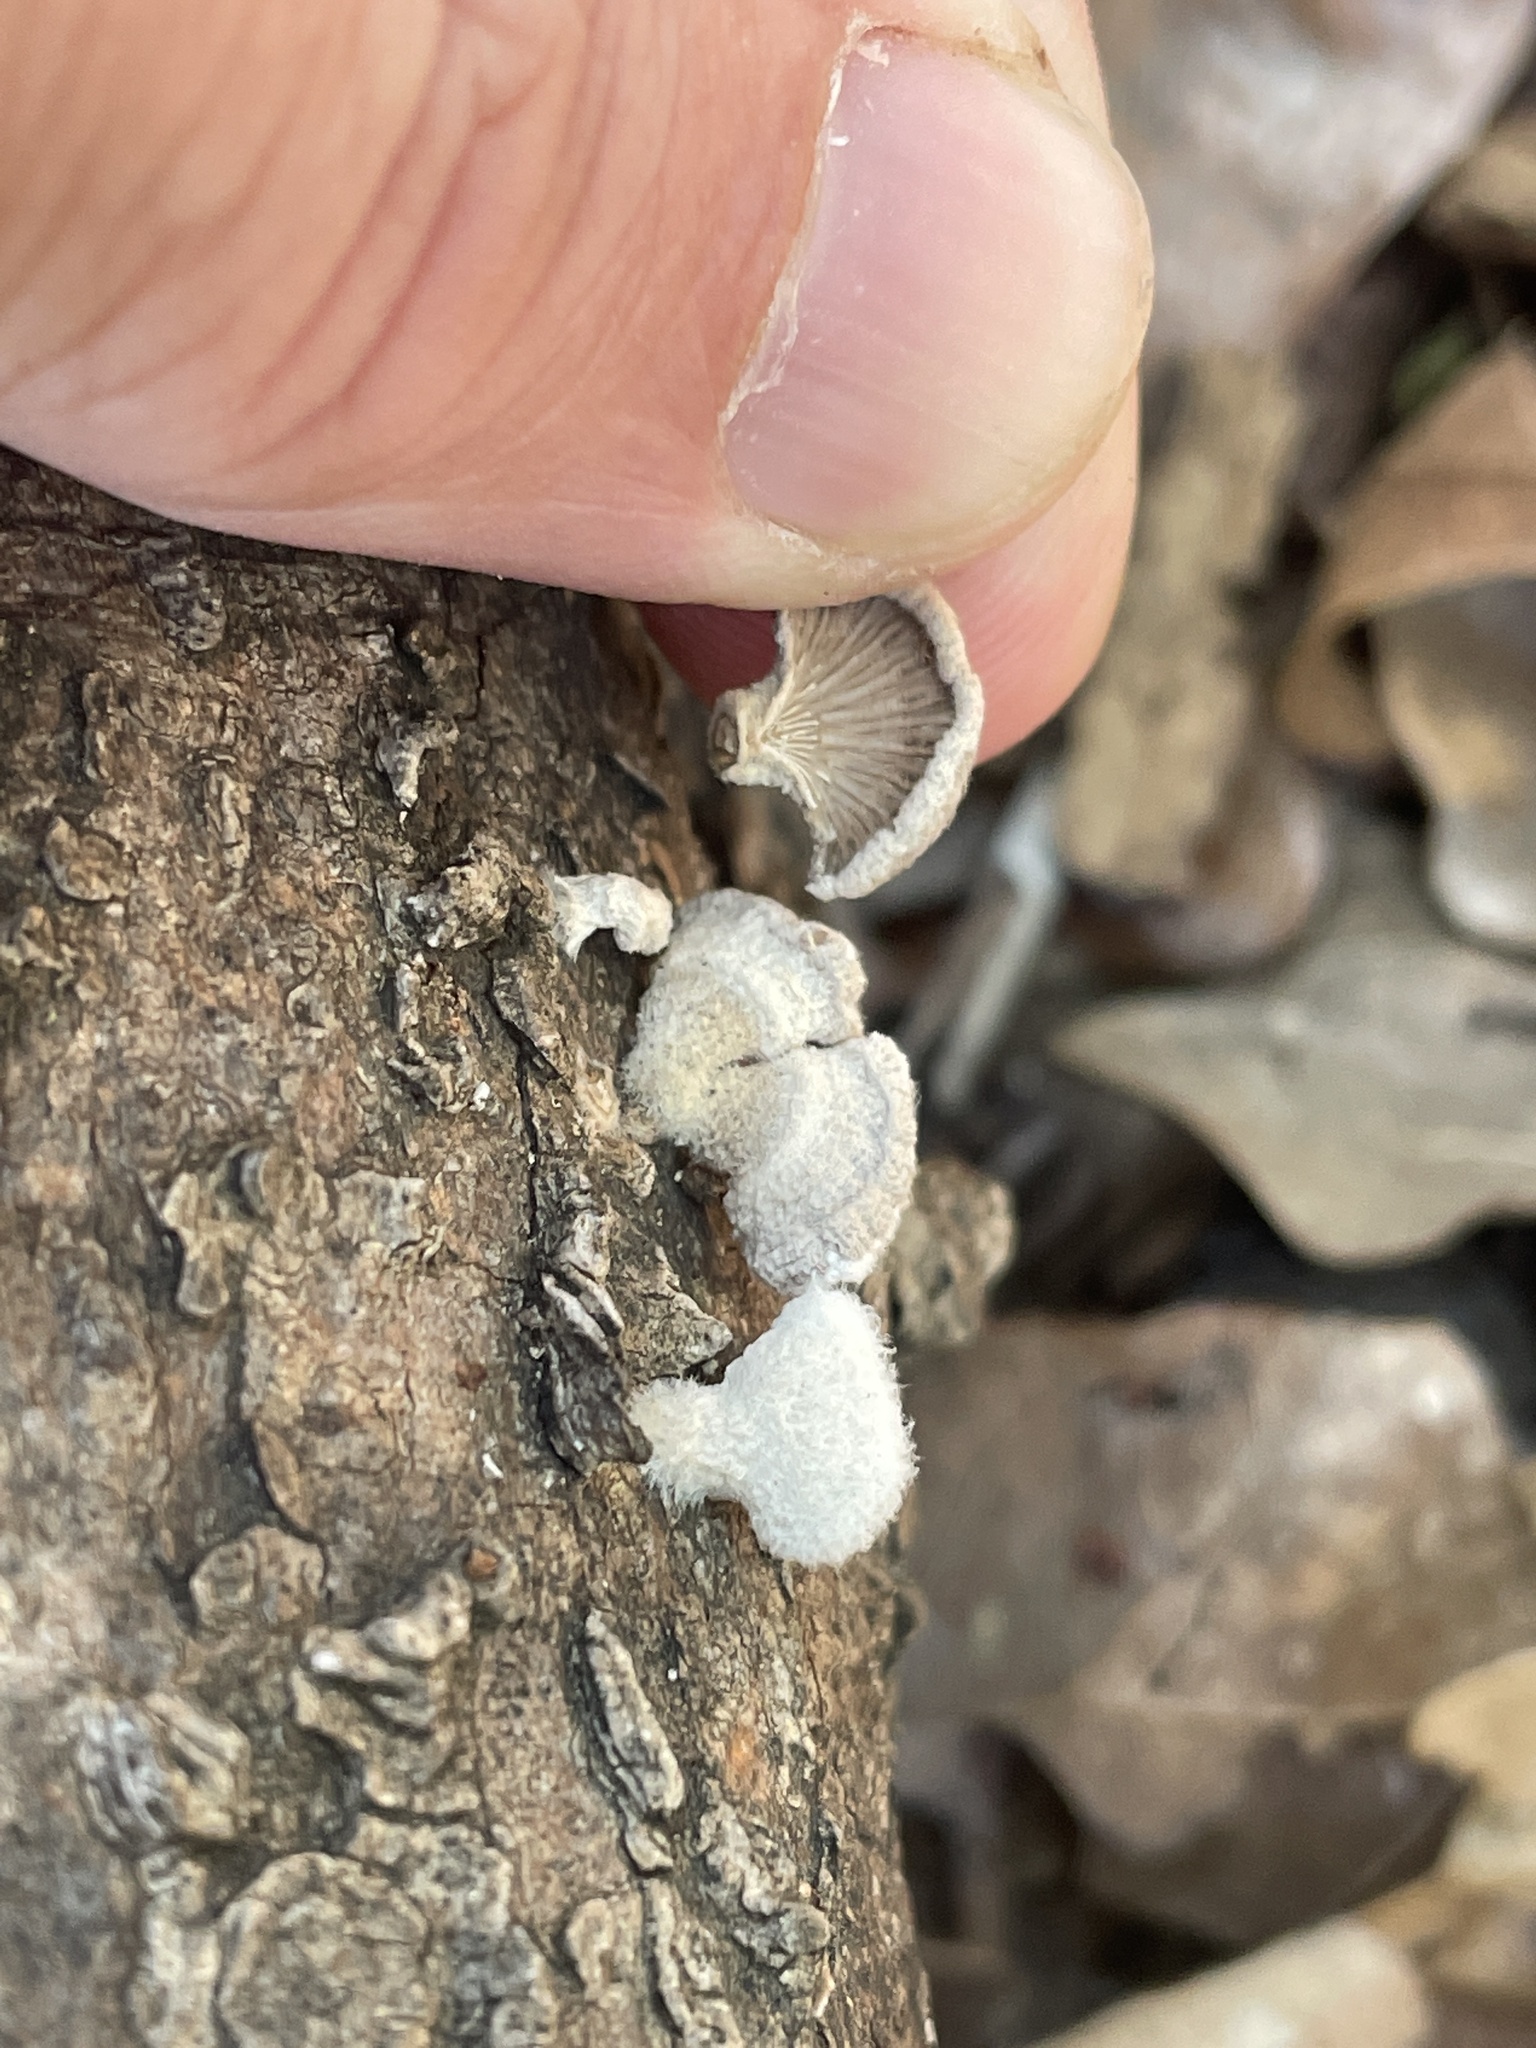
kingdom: Fungi
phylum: Basidiomycota
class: Agaricomycetes
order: Agaricales
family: Schizophyllaceae
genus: Schizophyllum
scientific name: Schizophyllum commune
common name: Common porecrust
